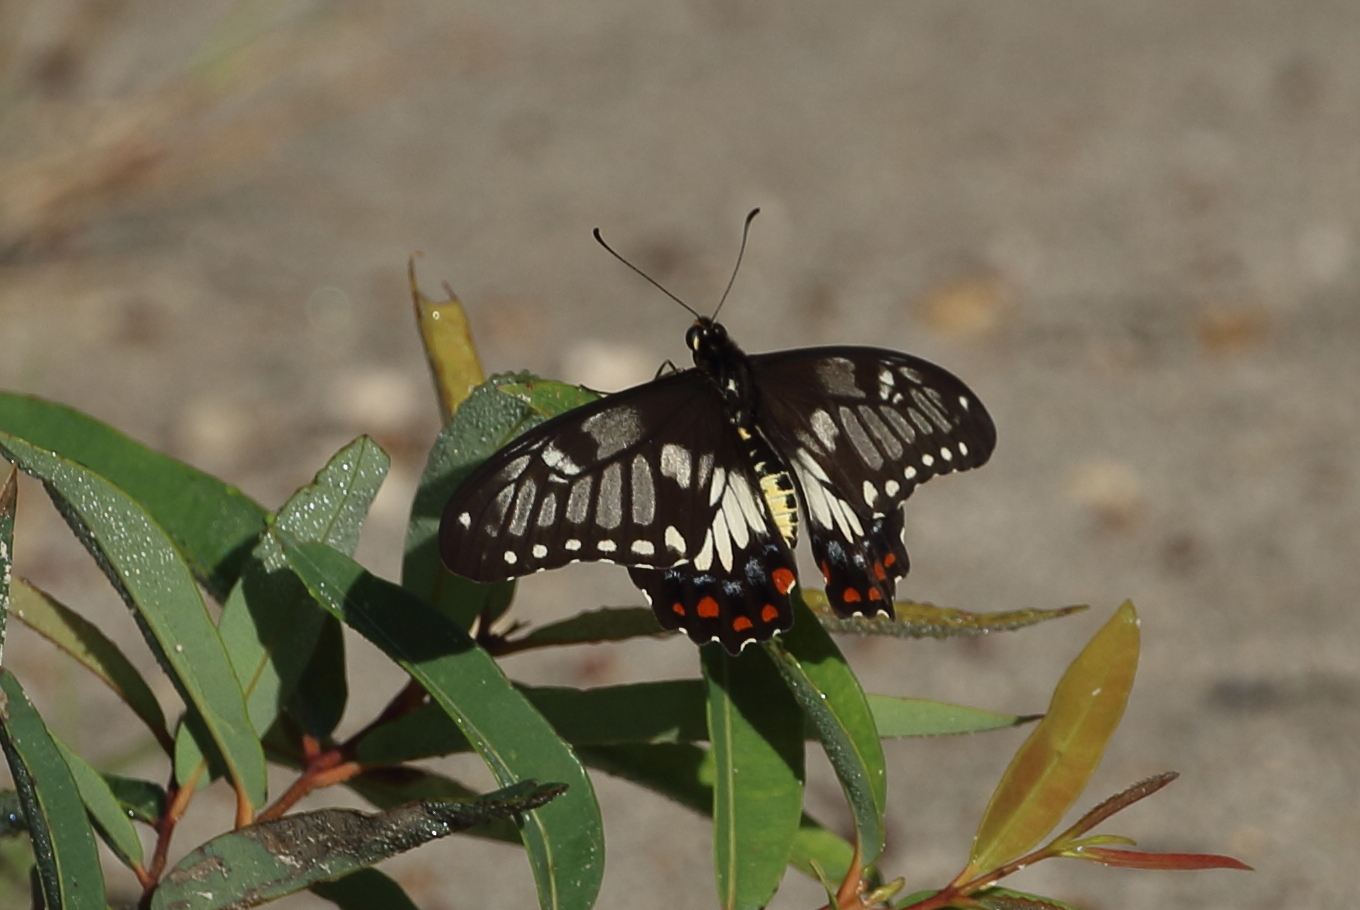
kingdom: Animalia
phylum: Arthropoda
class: Insecta
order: Lepidoptera
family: Papilionidae
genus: Papilio
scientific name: Papilio anactus
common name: Dingy swallowtail
